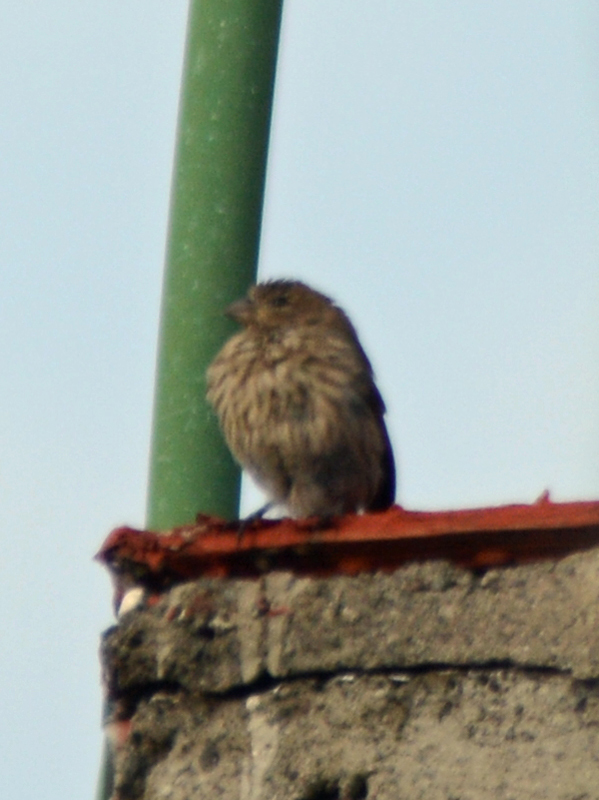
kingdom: Animalia
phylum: Chordata
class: Aves
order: Passeriformes
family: Fringillidae
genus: Haemorhous
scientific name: Haemorhous mexicanus
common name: House finch
